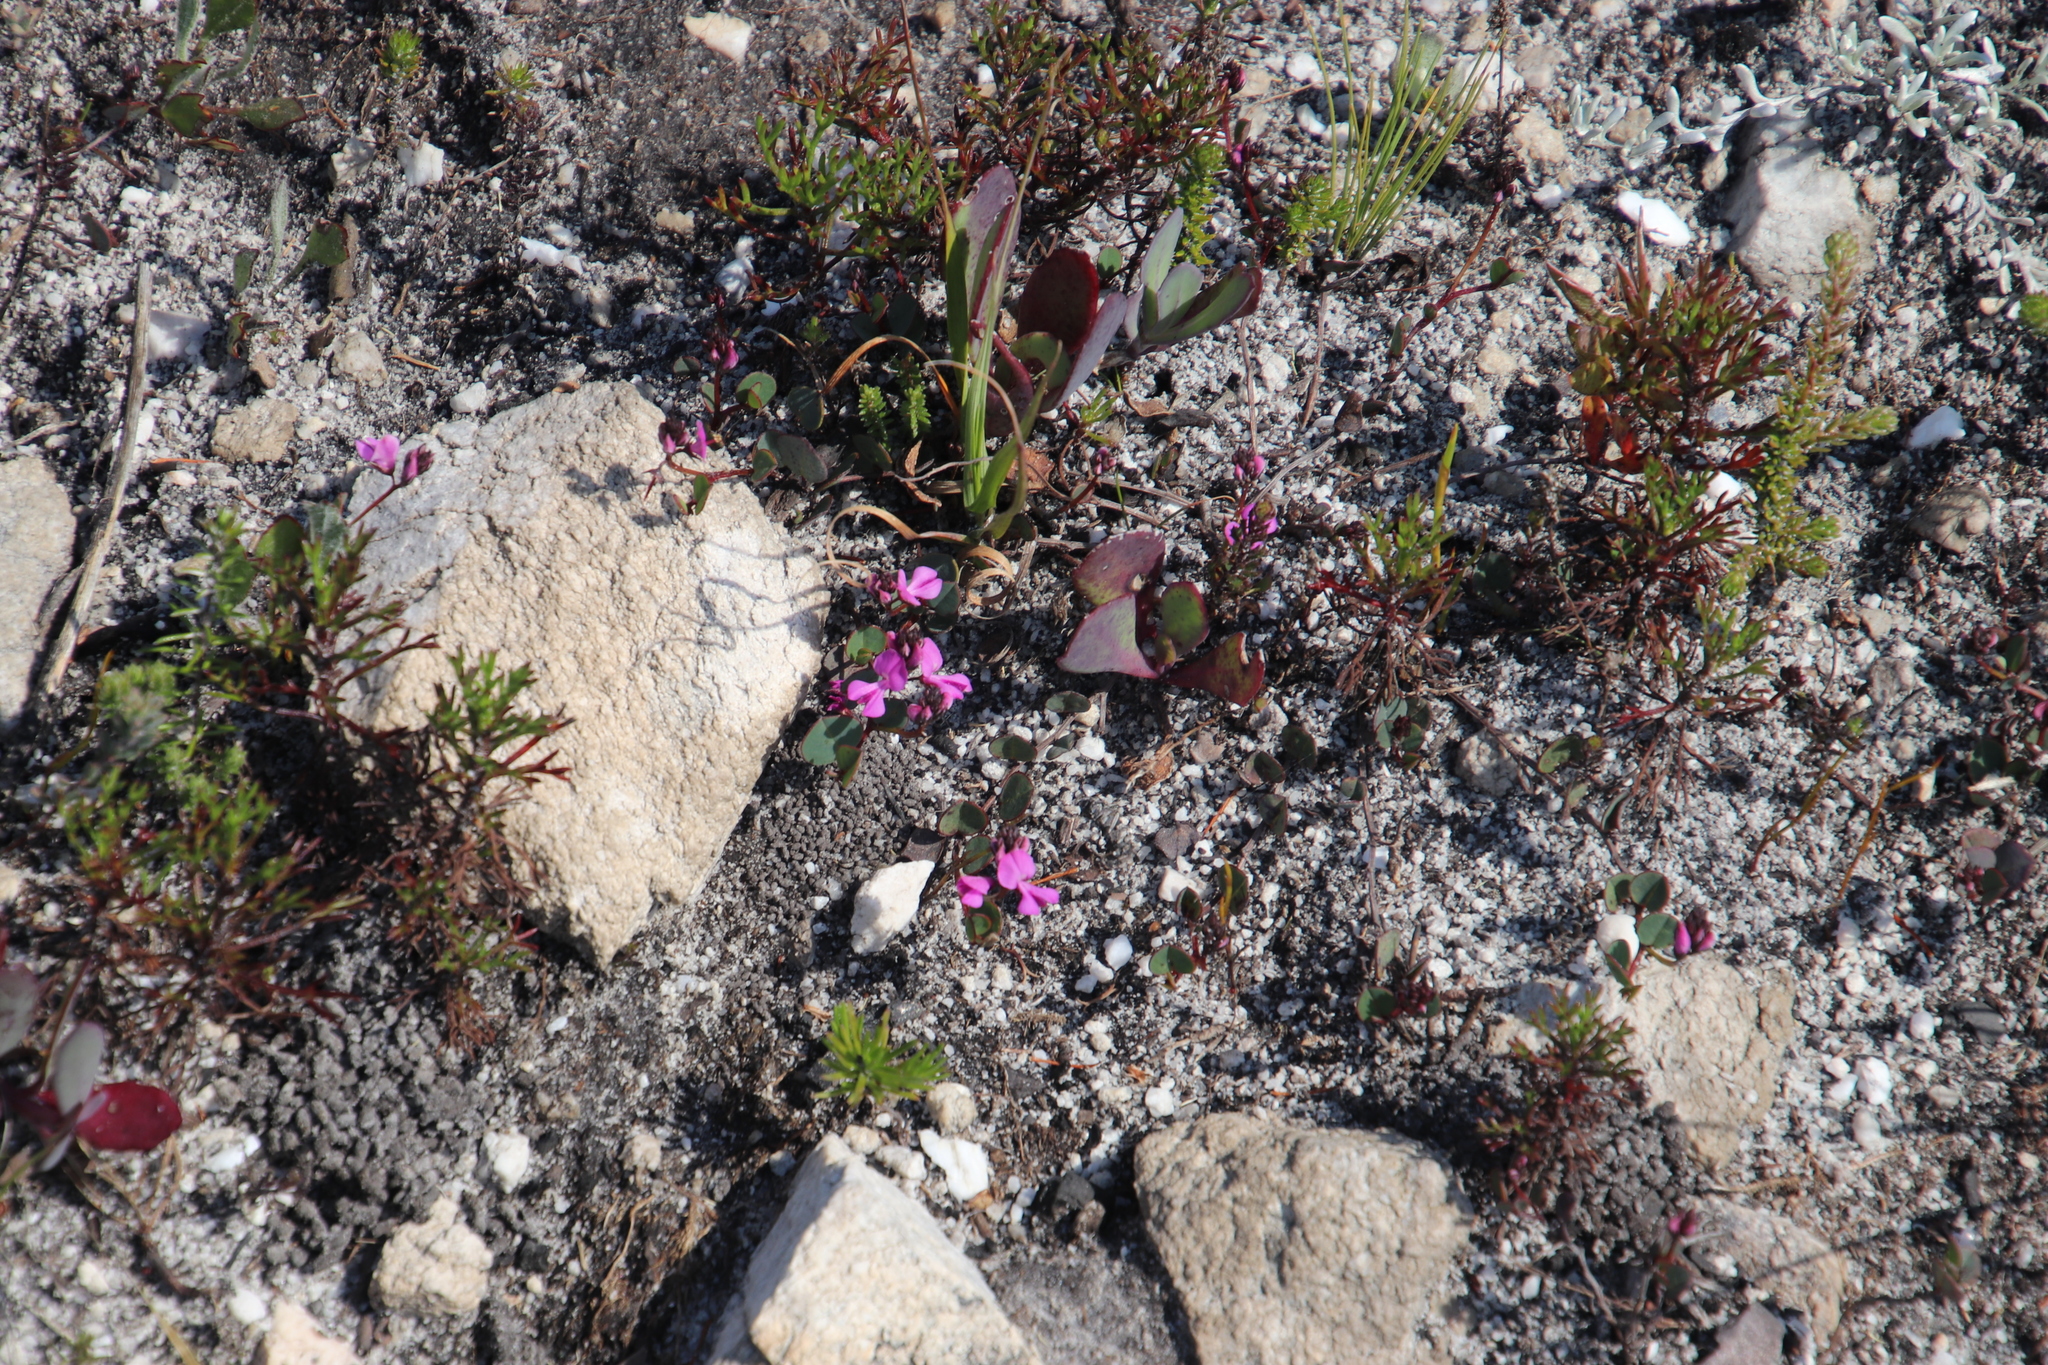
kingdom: Plantae
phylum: Tracheophyta
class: Magnoliopsida
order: Fabales
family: Fabaceae
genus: Indigofera
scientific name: Indigofera ovata
